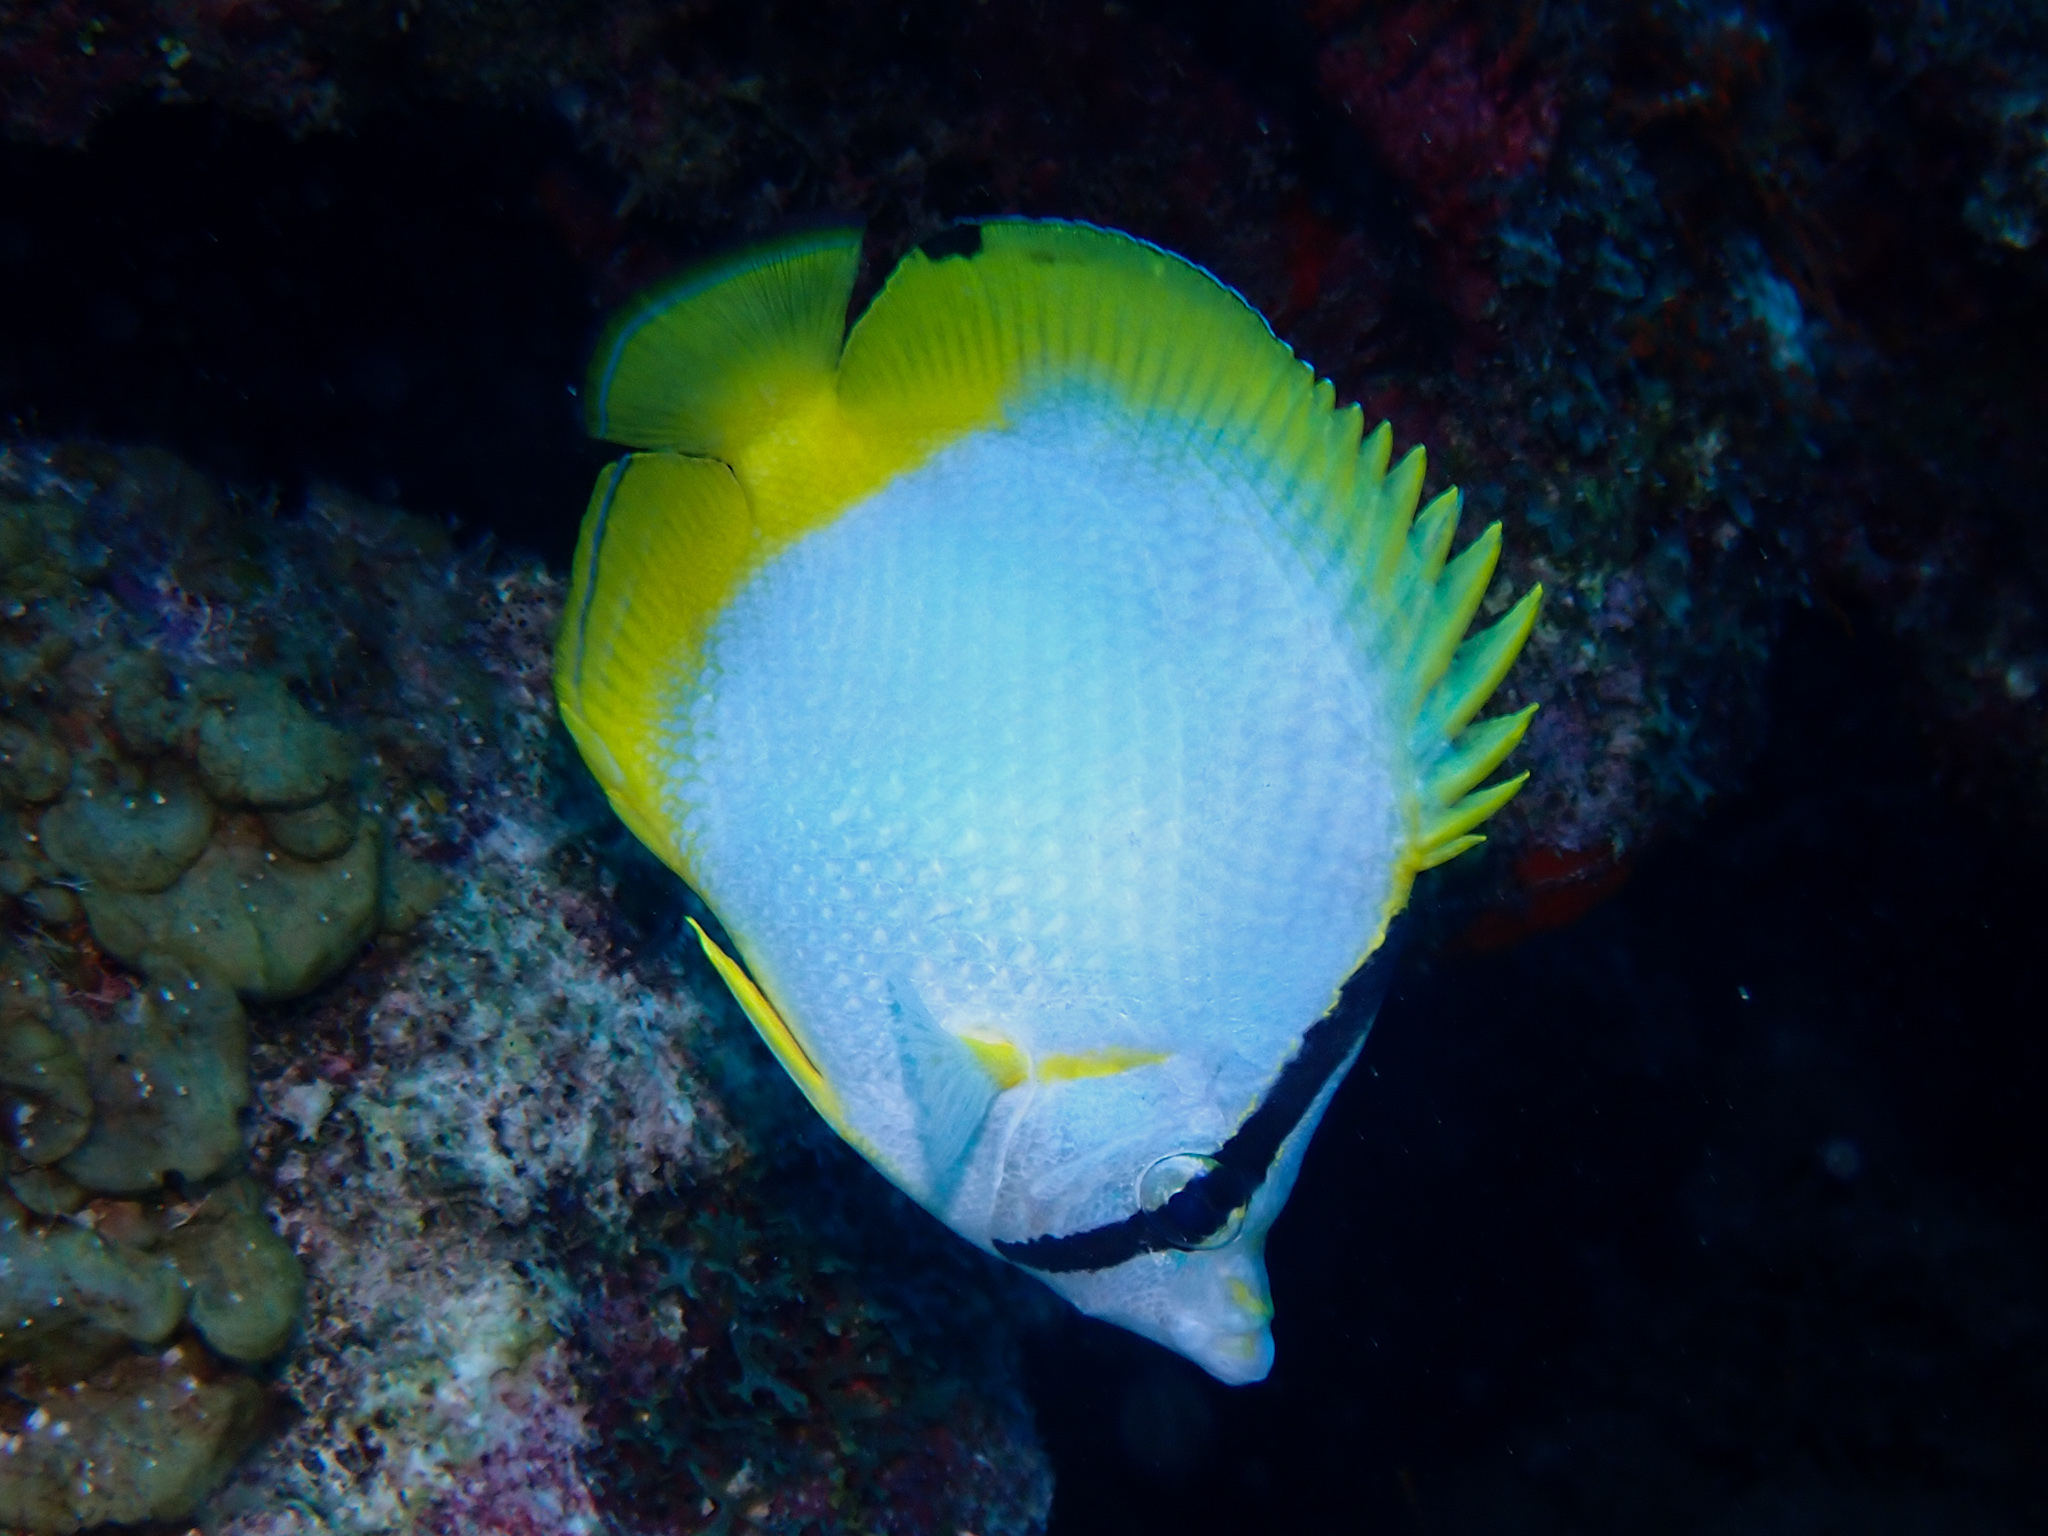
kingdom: Animalia
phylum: Chordata
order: Perciformes
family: Chaetodontidae
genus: Chaetodon
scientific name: Chaetodon ocellatus
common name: Spotfin butterflyfish
